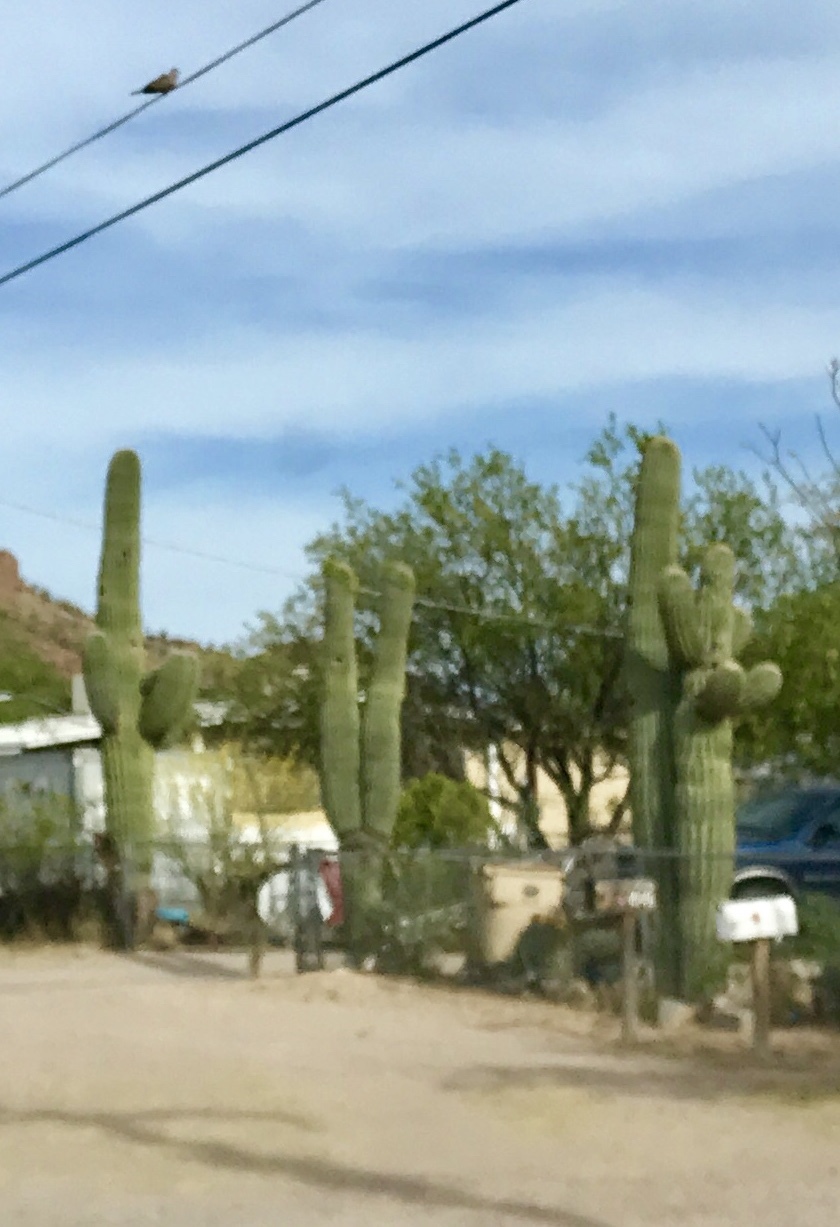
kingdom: Plantae
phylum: Tracheophyta
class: Magnoliopsida
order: Caryophyllales
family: Cactaceae
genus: Carnegiea
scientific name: Carnegiea gigantea
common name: Saguaro
